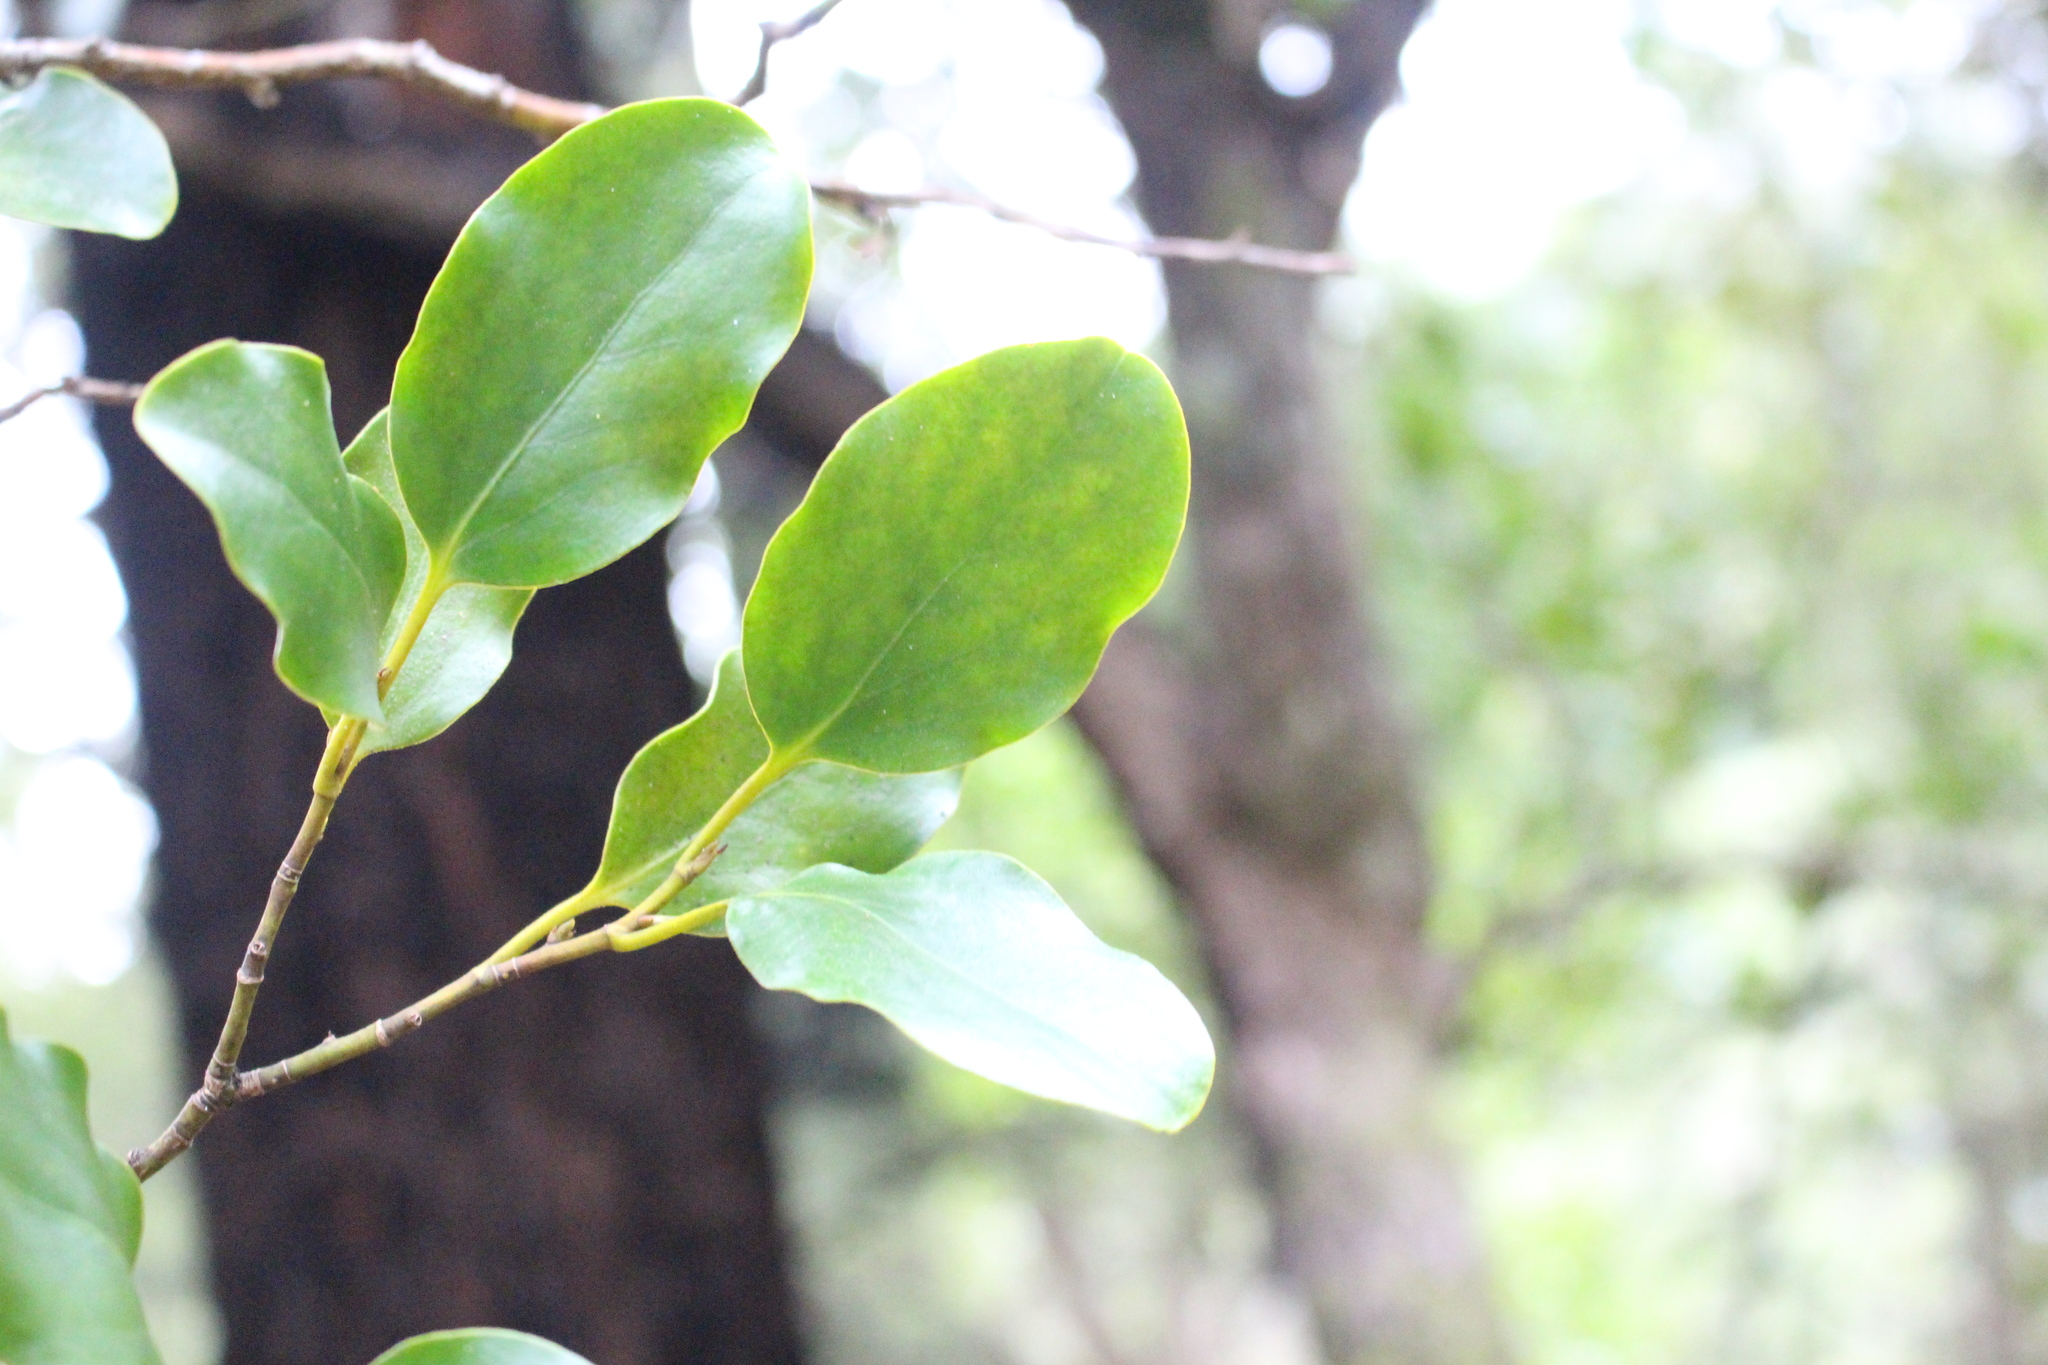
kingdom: Plantae
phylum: Tracheophyta
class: Magnoliopsida
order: Apiales
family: Griseliniaceae
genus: Griselinia
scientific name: Griselinia littoralis
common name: New zealand broadleaf
